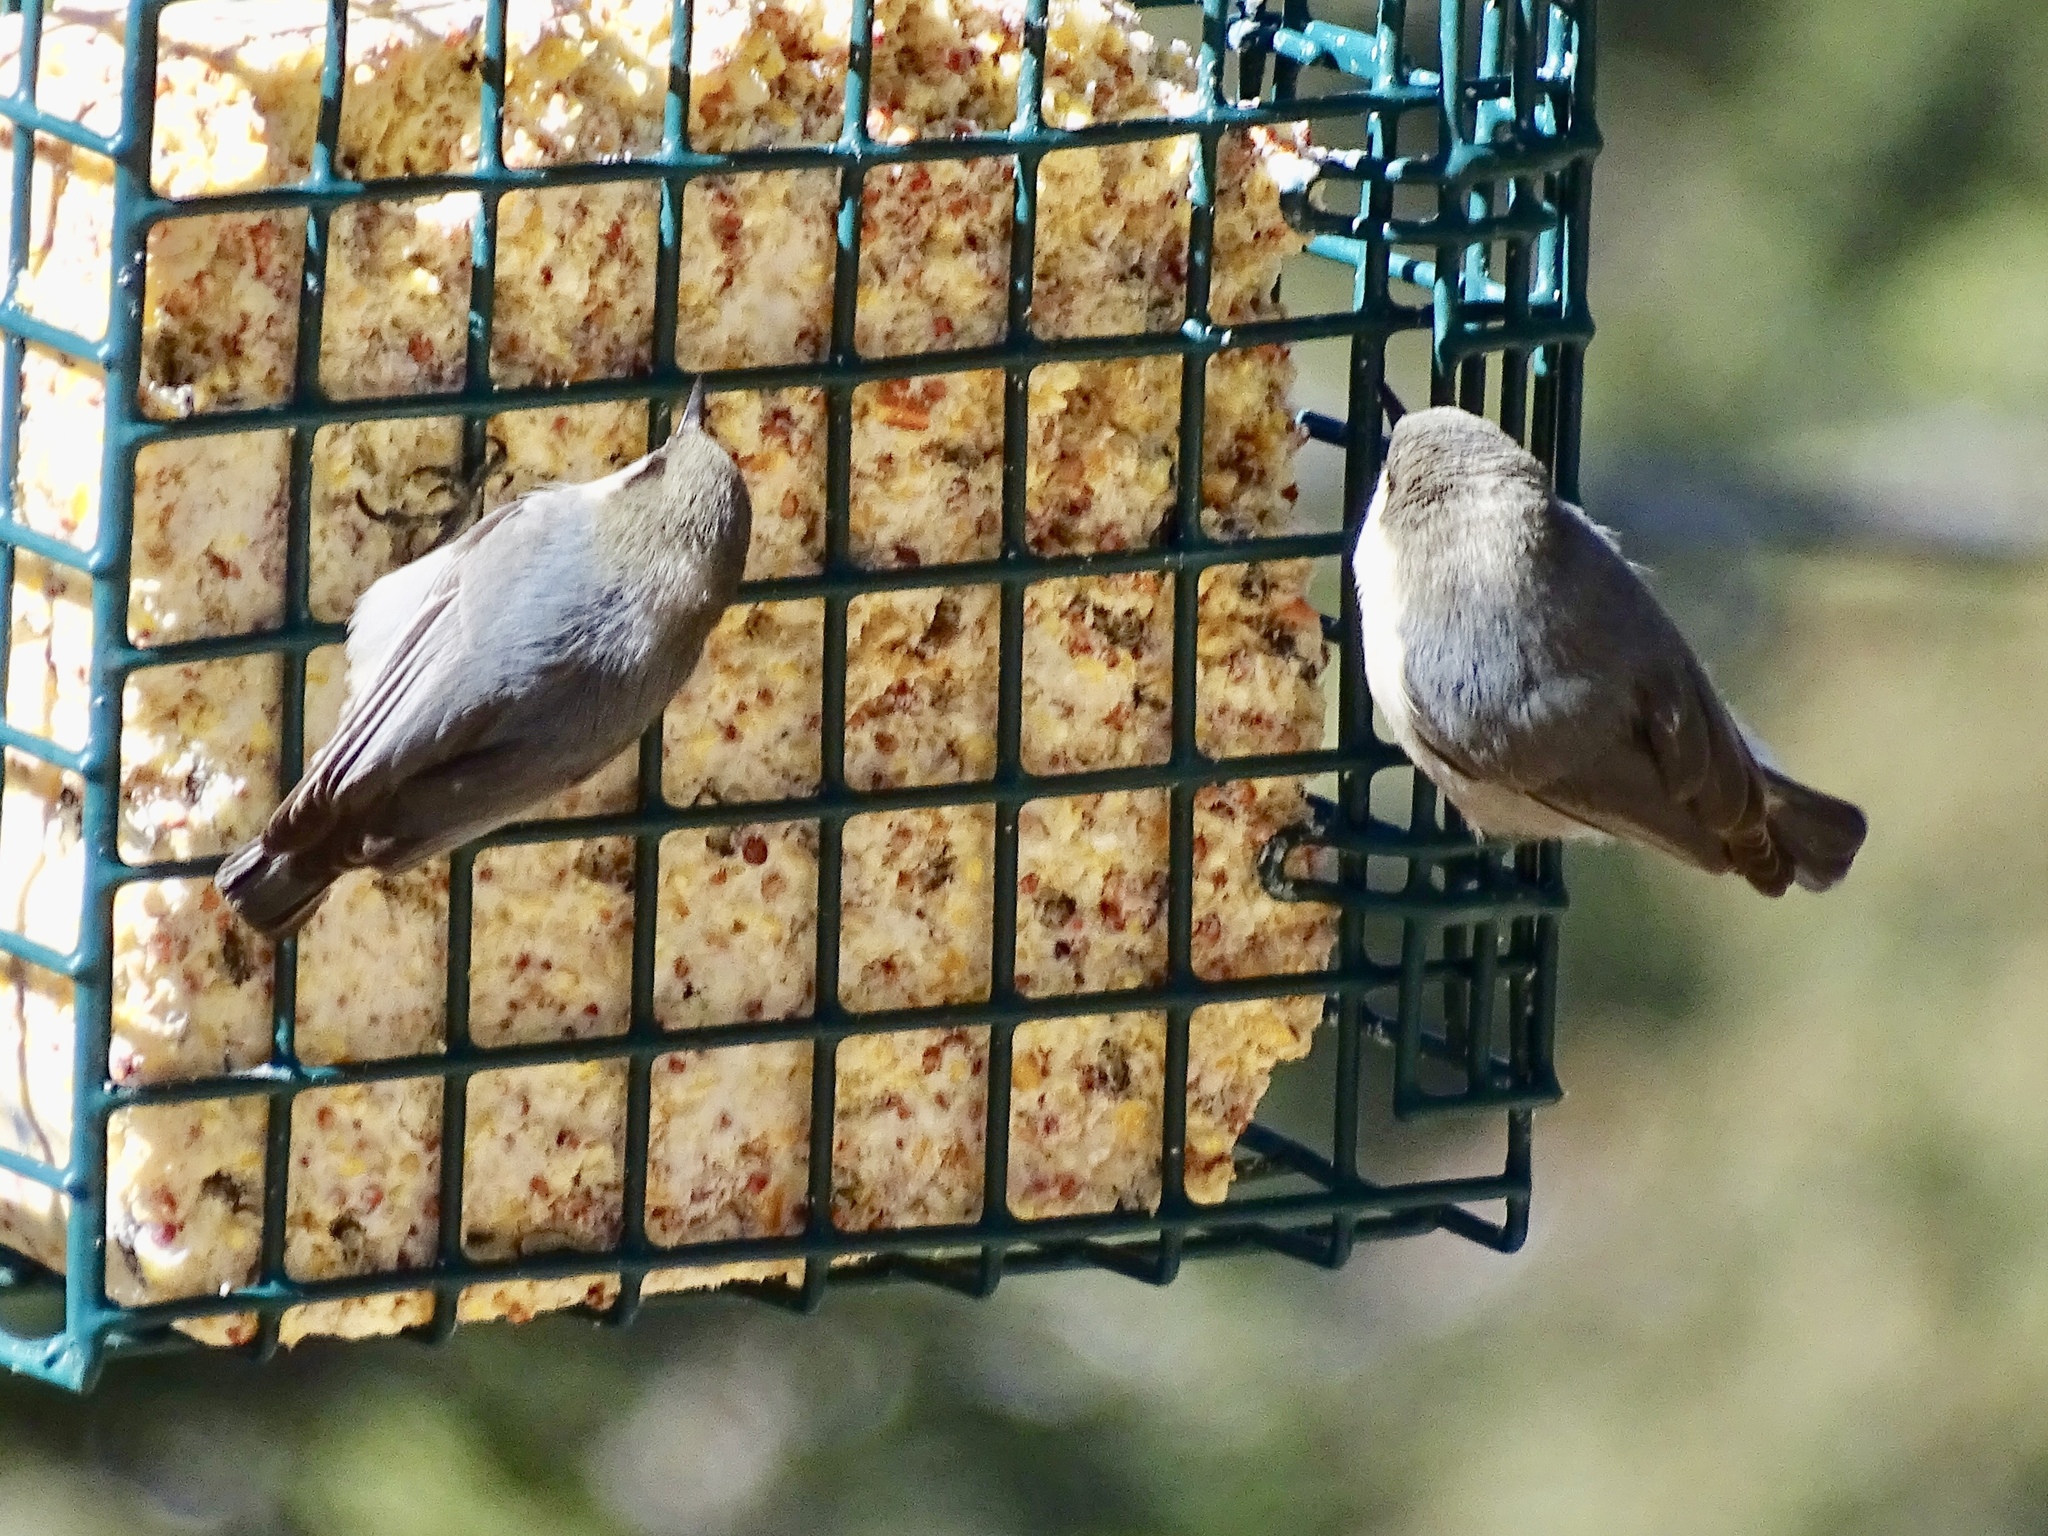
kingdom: Animalia
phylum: Chordata
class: Aves
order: Passeriformes
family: Sittidae
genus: Sitta
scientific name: Sitta pygmaea
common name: Pygmy nuthatch
